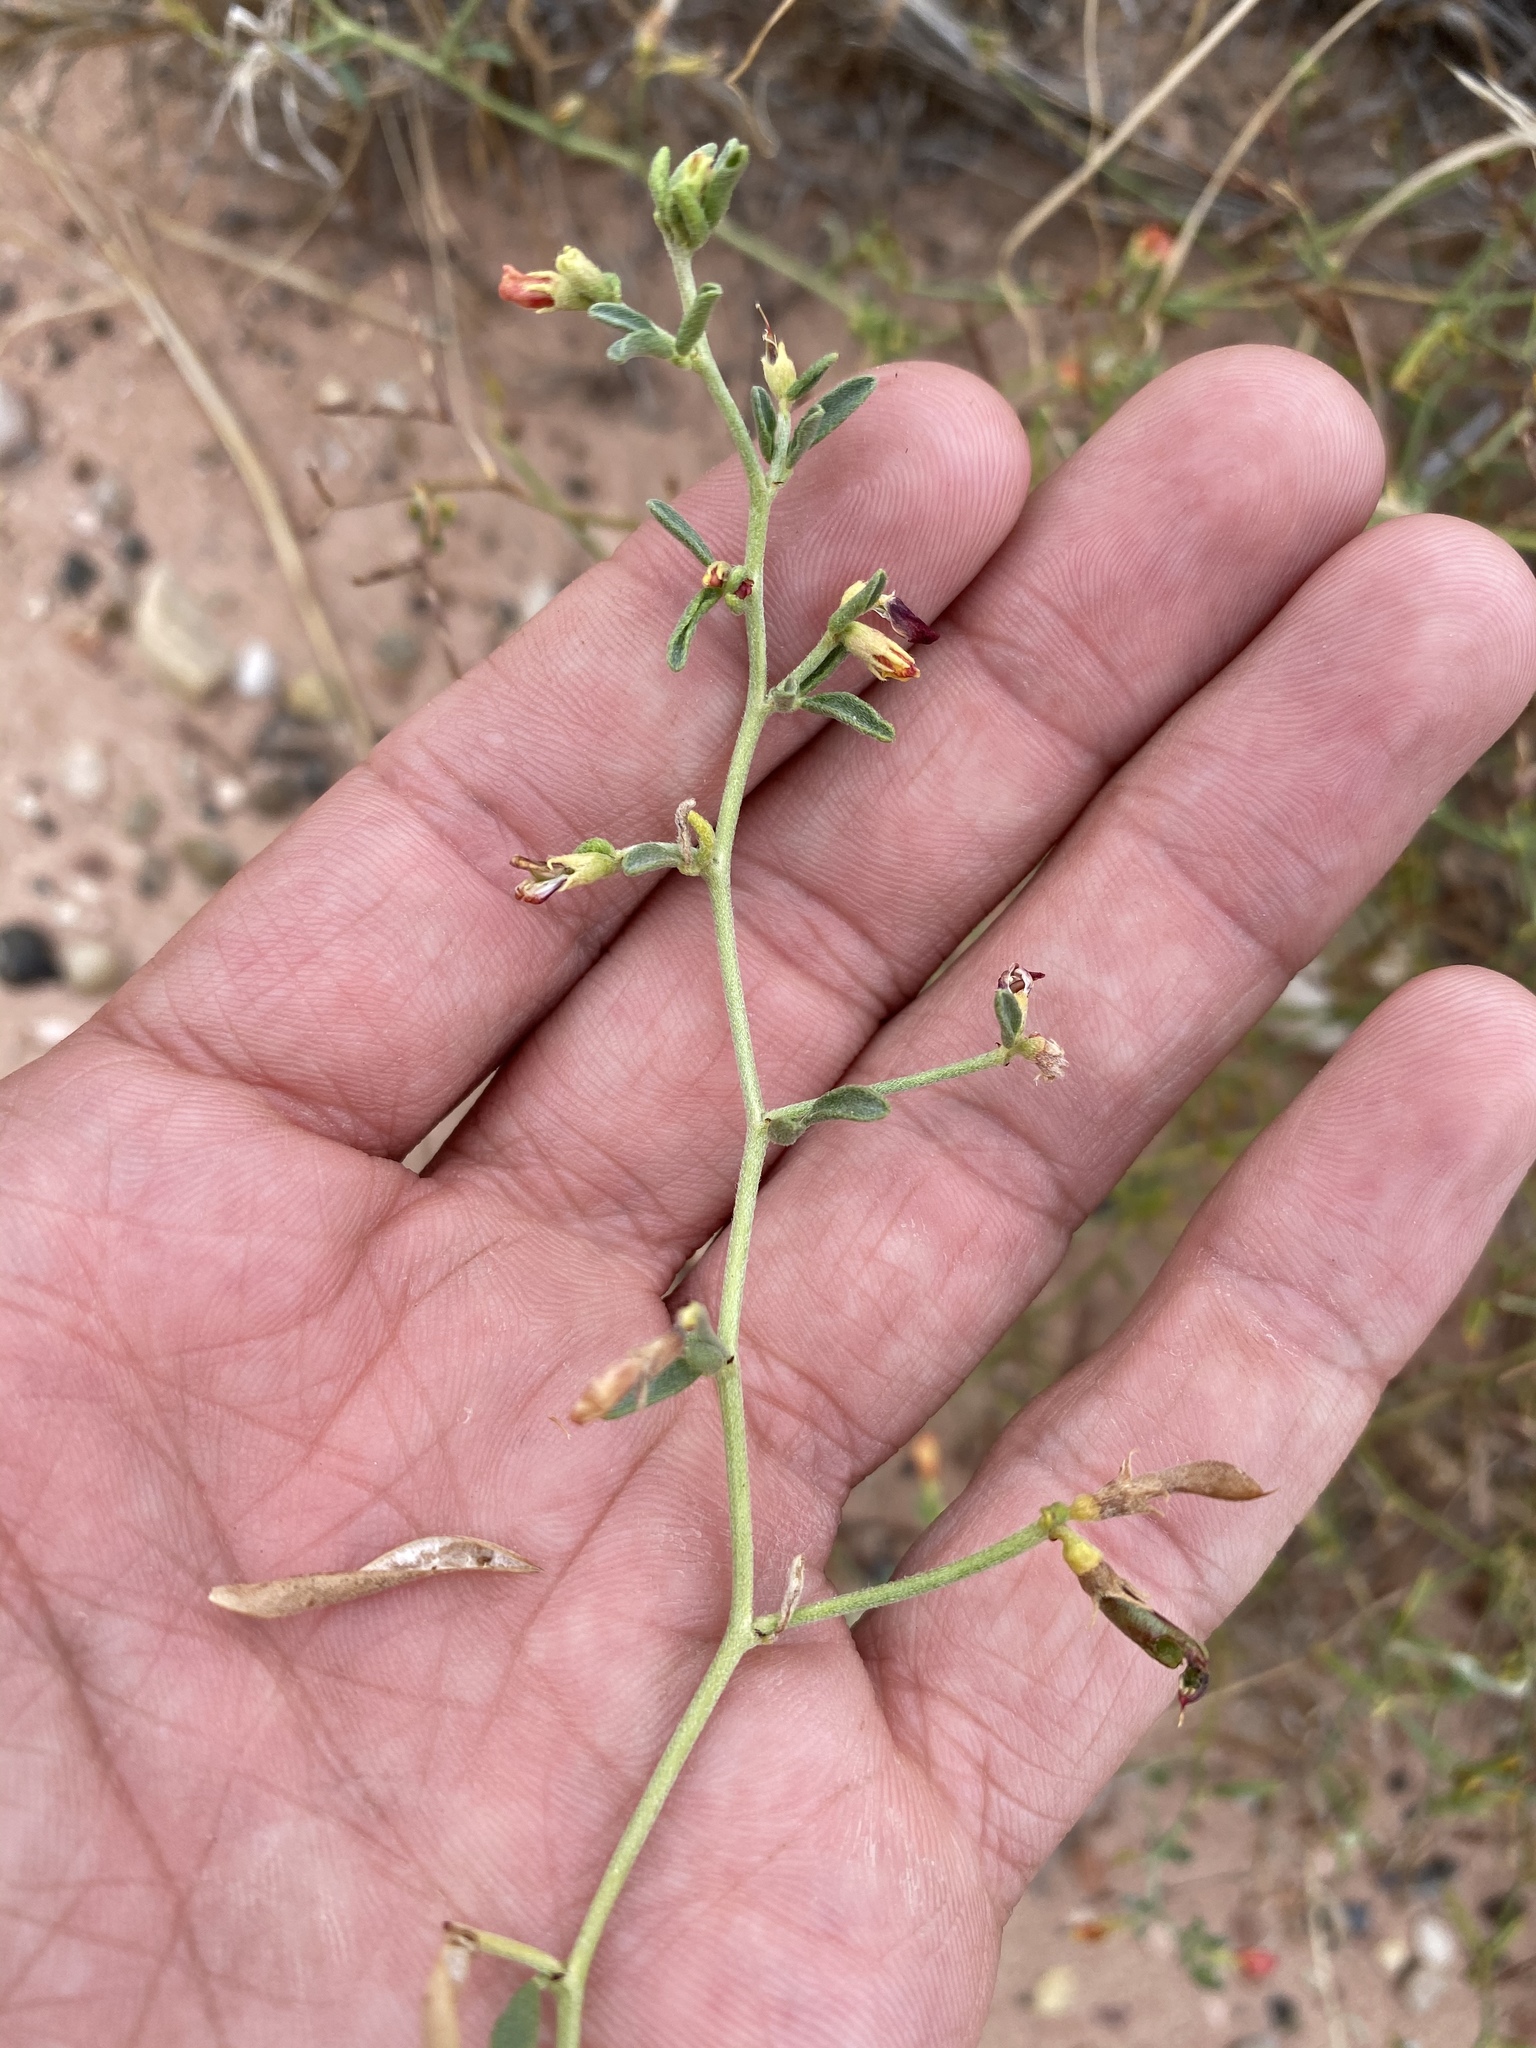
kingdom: Plantae
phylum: Tracheophyta
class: Magnoliopsida
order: Fabales
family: Fabaceae
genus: Acmispon
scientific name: Acmispon oroboides
